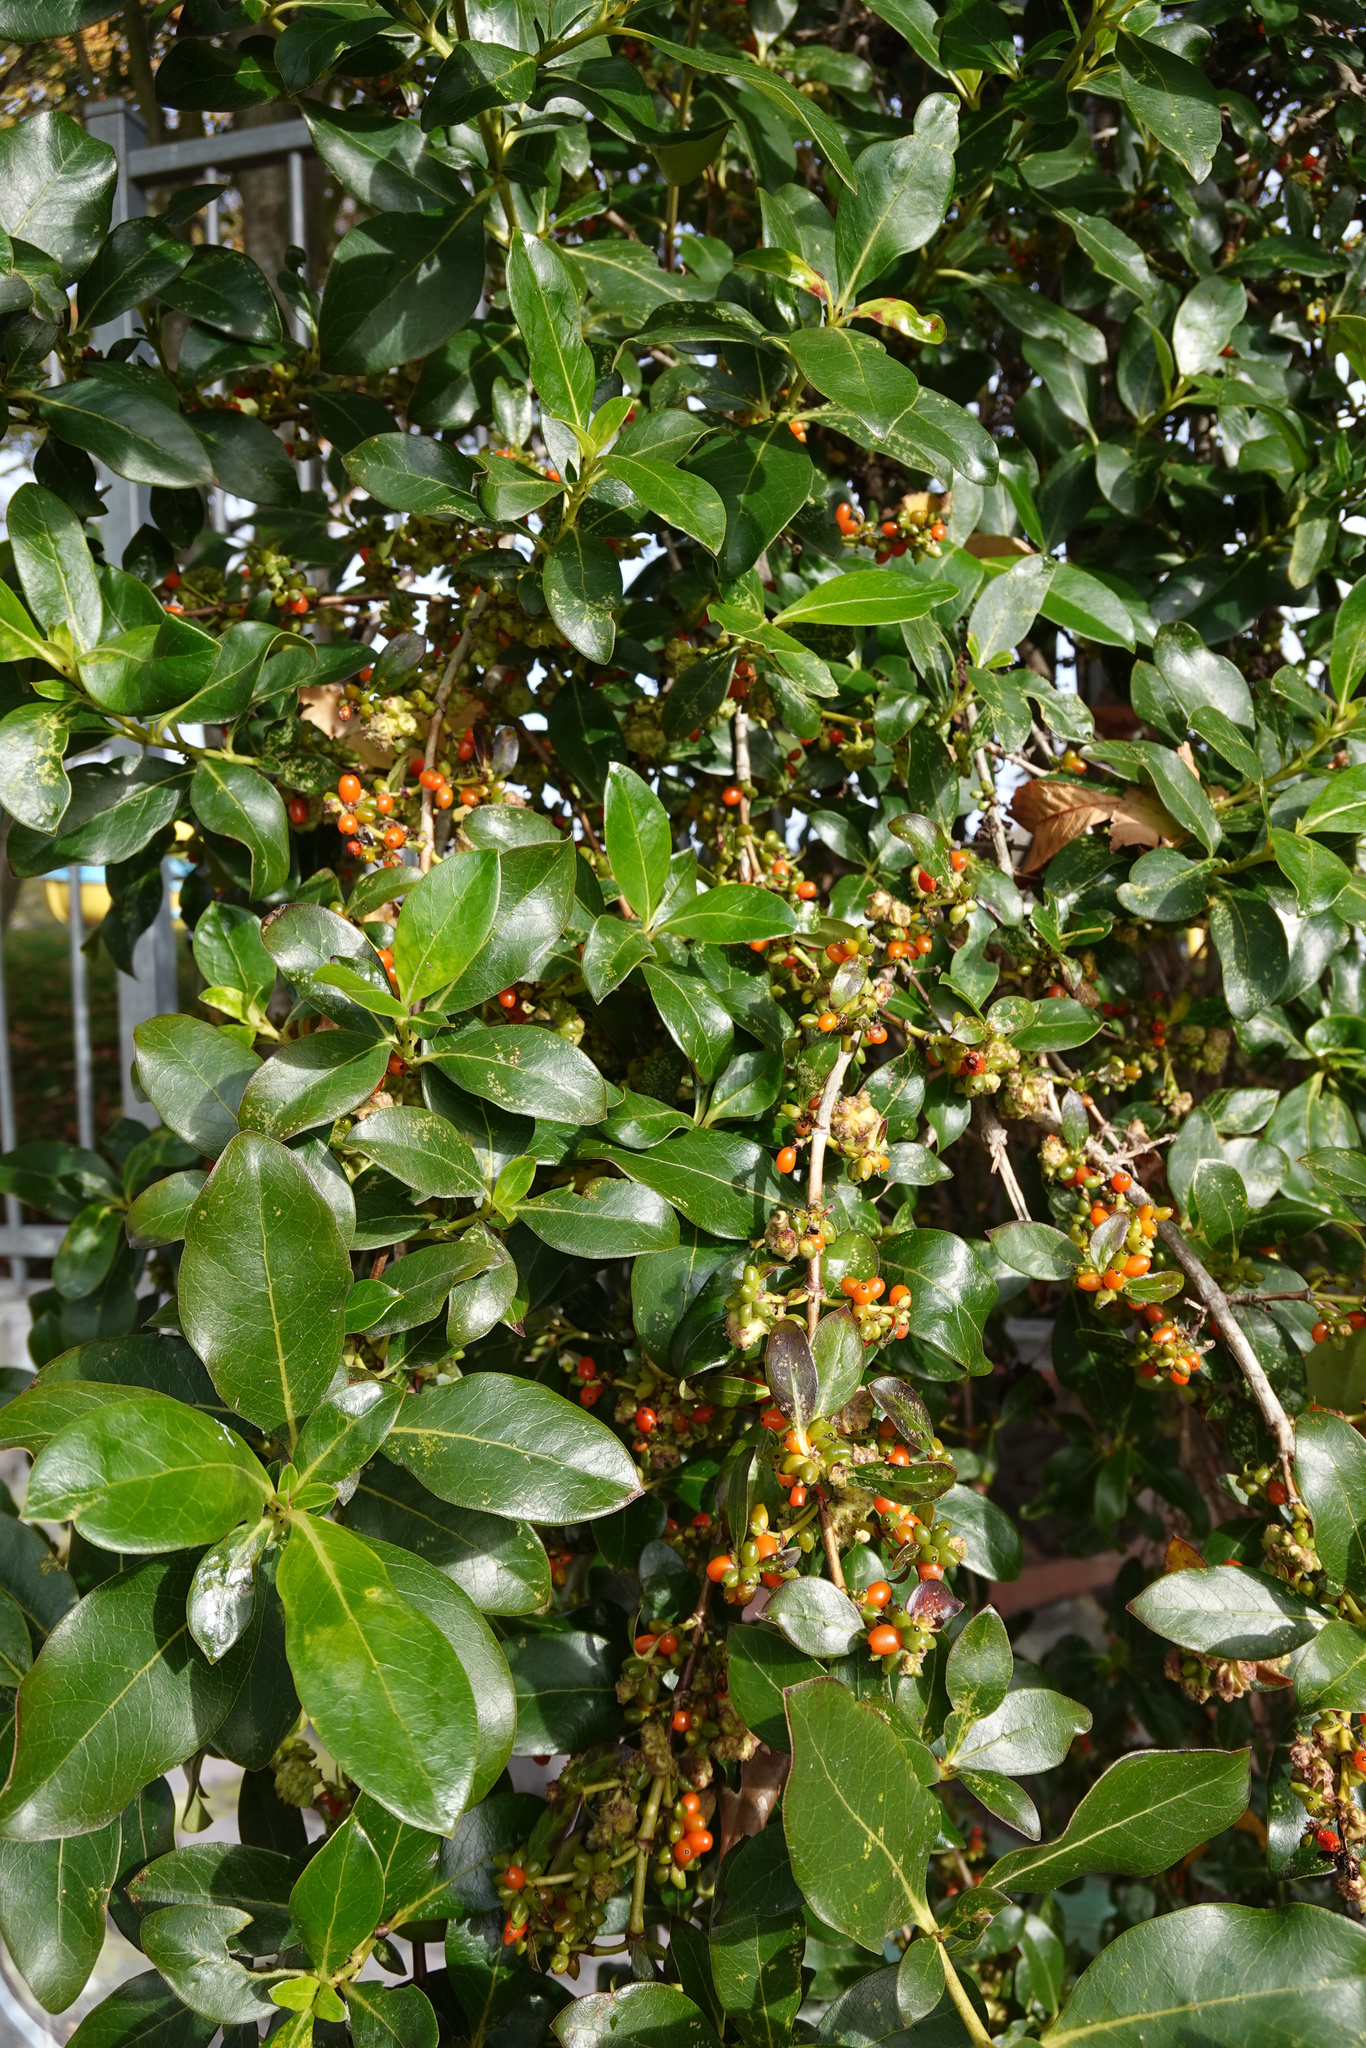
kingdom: Plantae
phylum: Tracheophyta
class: Magnoliopsida
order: Gentianales
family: Rubiaceae
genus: Coprosma
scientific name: Coprosma robusta
